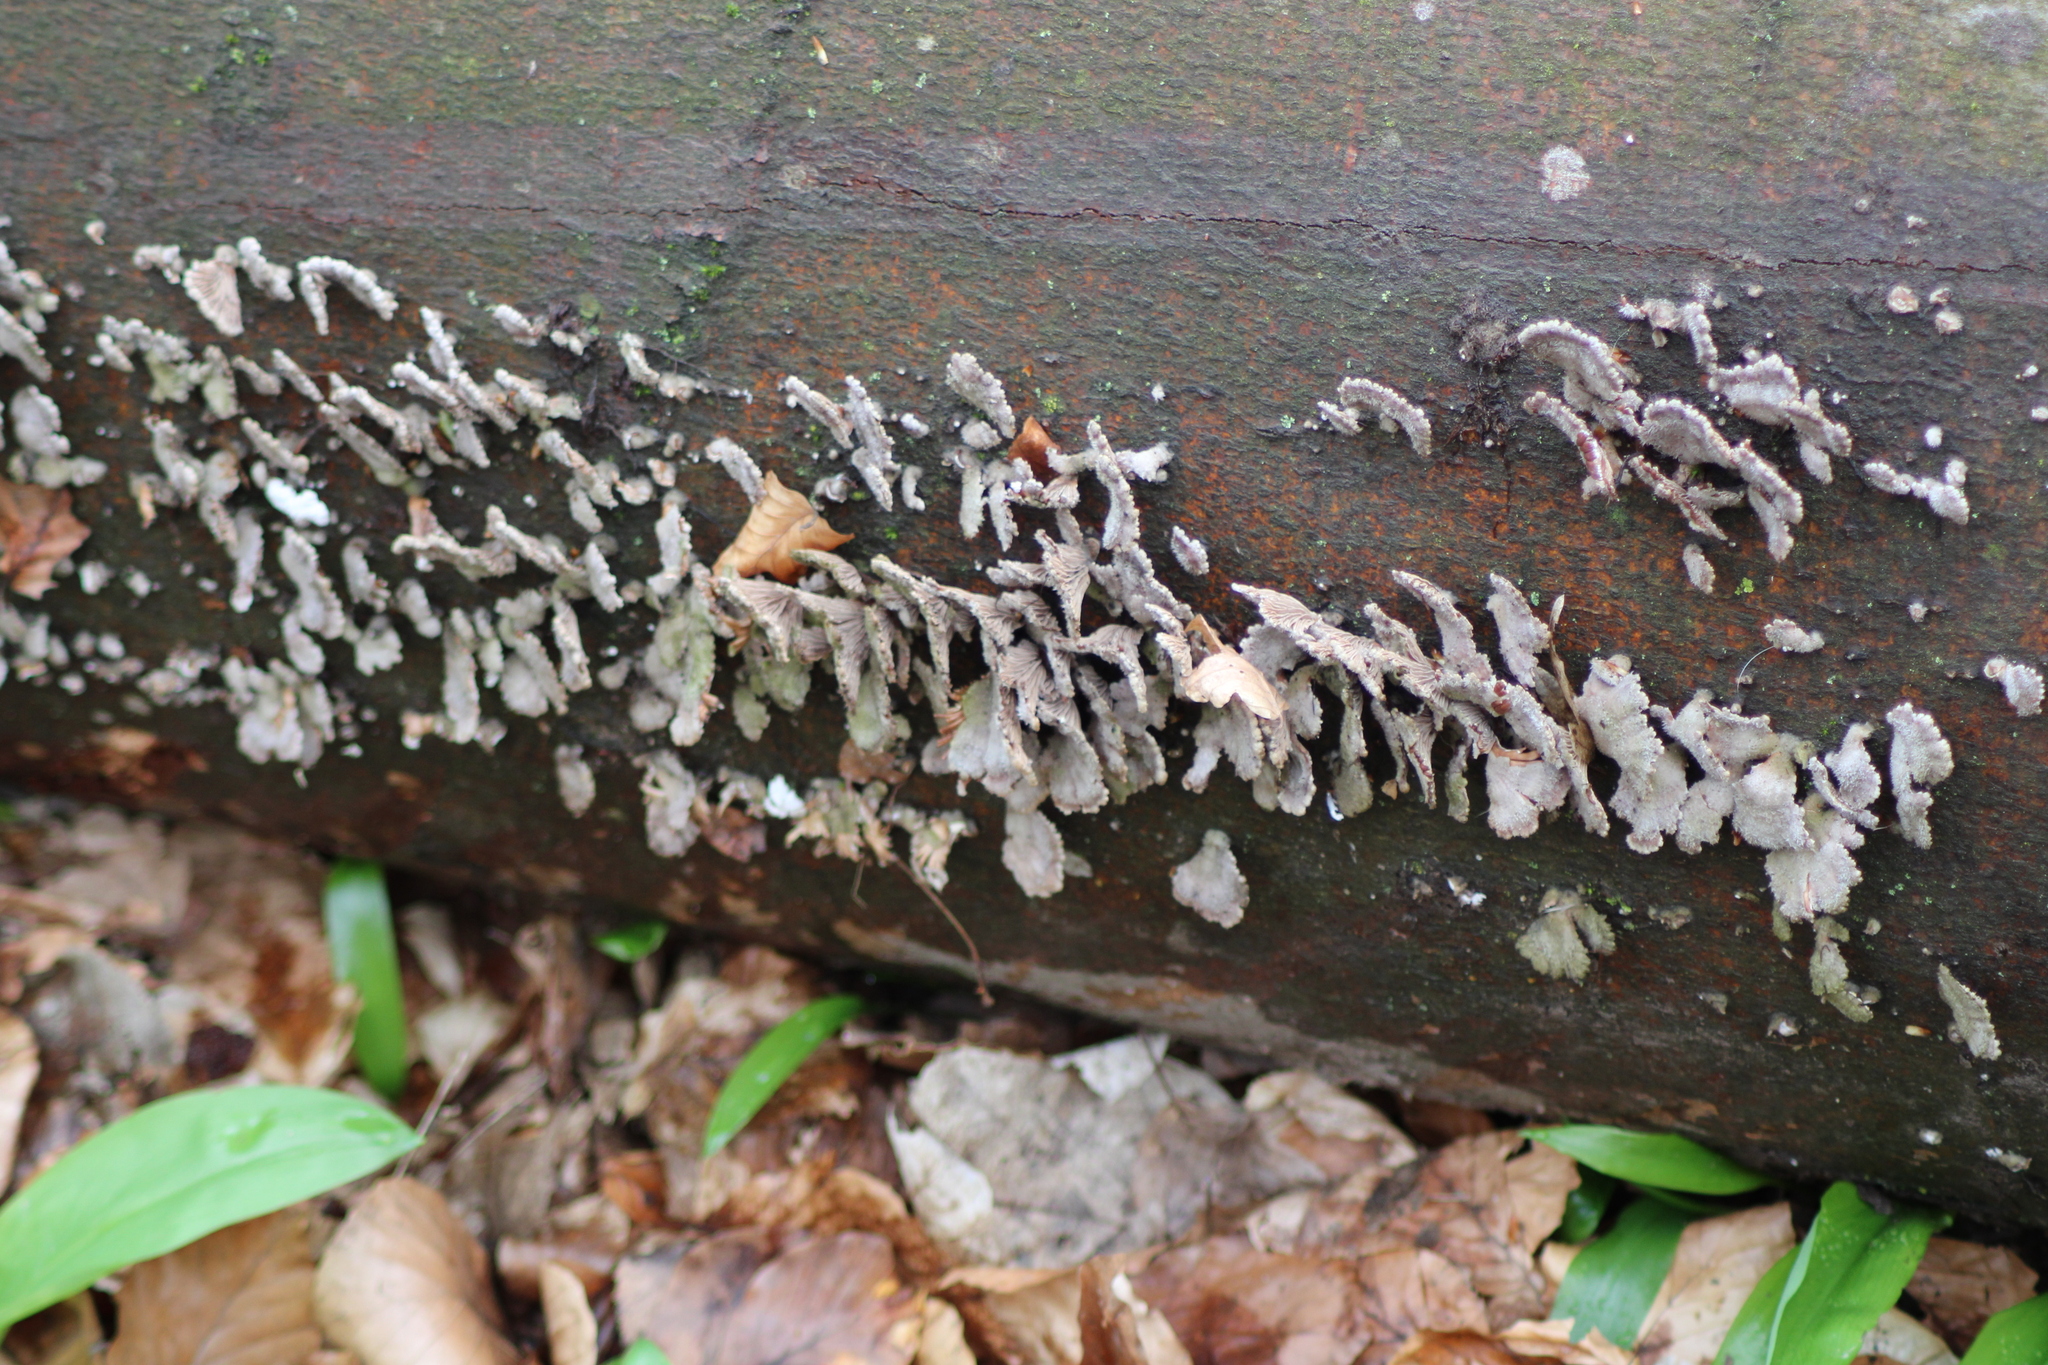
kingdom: Fungi
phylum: Basidiomycota
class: Agaricomycetes
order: Agaricales
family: Schizophyllaceae
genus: Schizophyllum
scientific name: Schizophyllum commune
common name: Common porecrust
